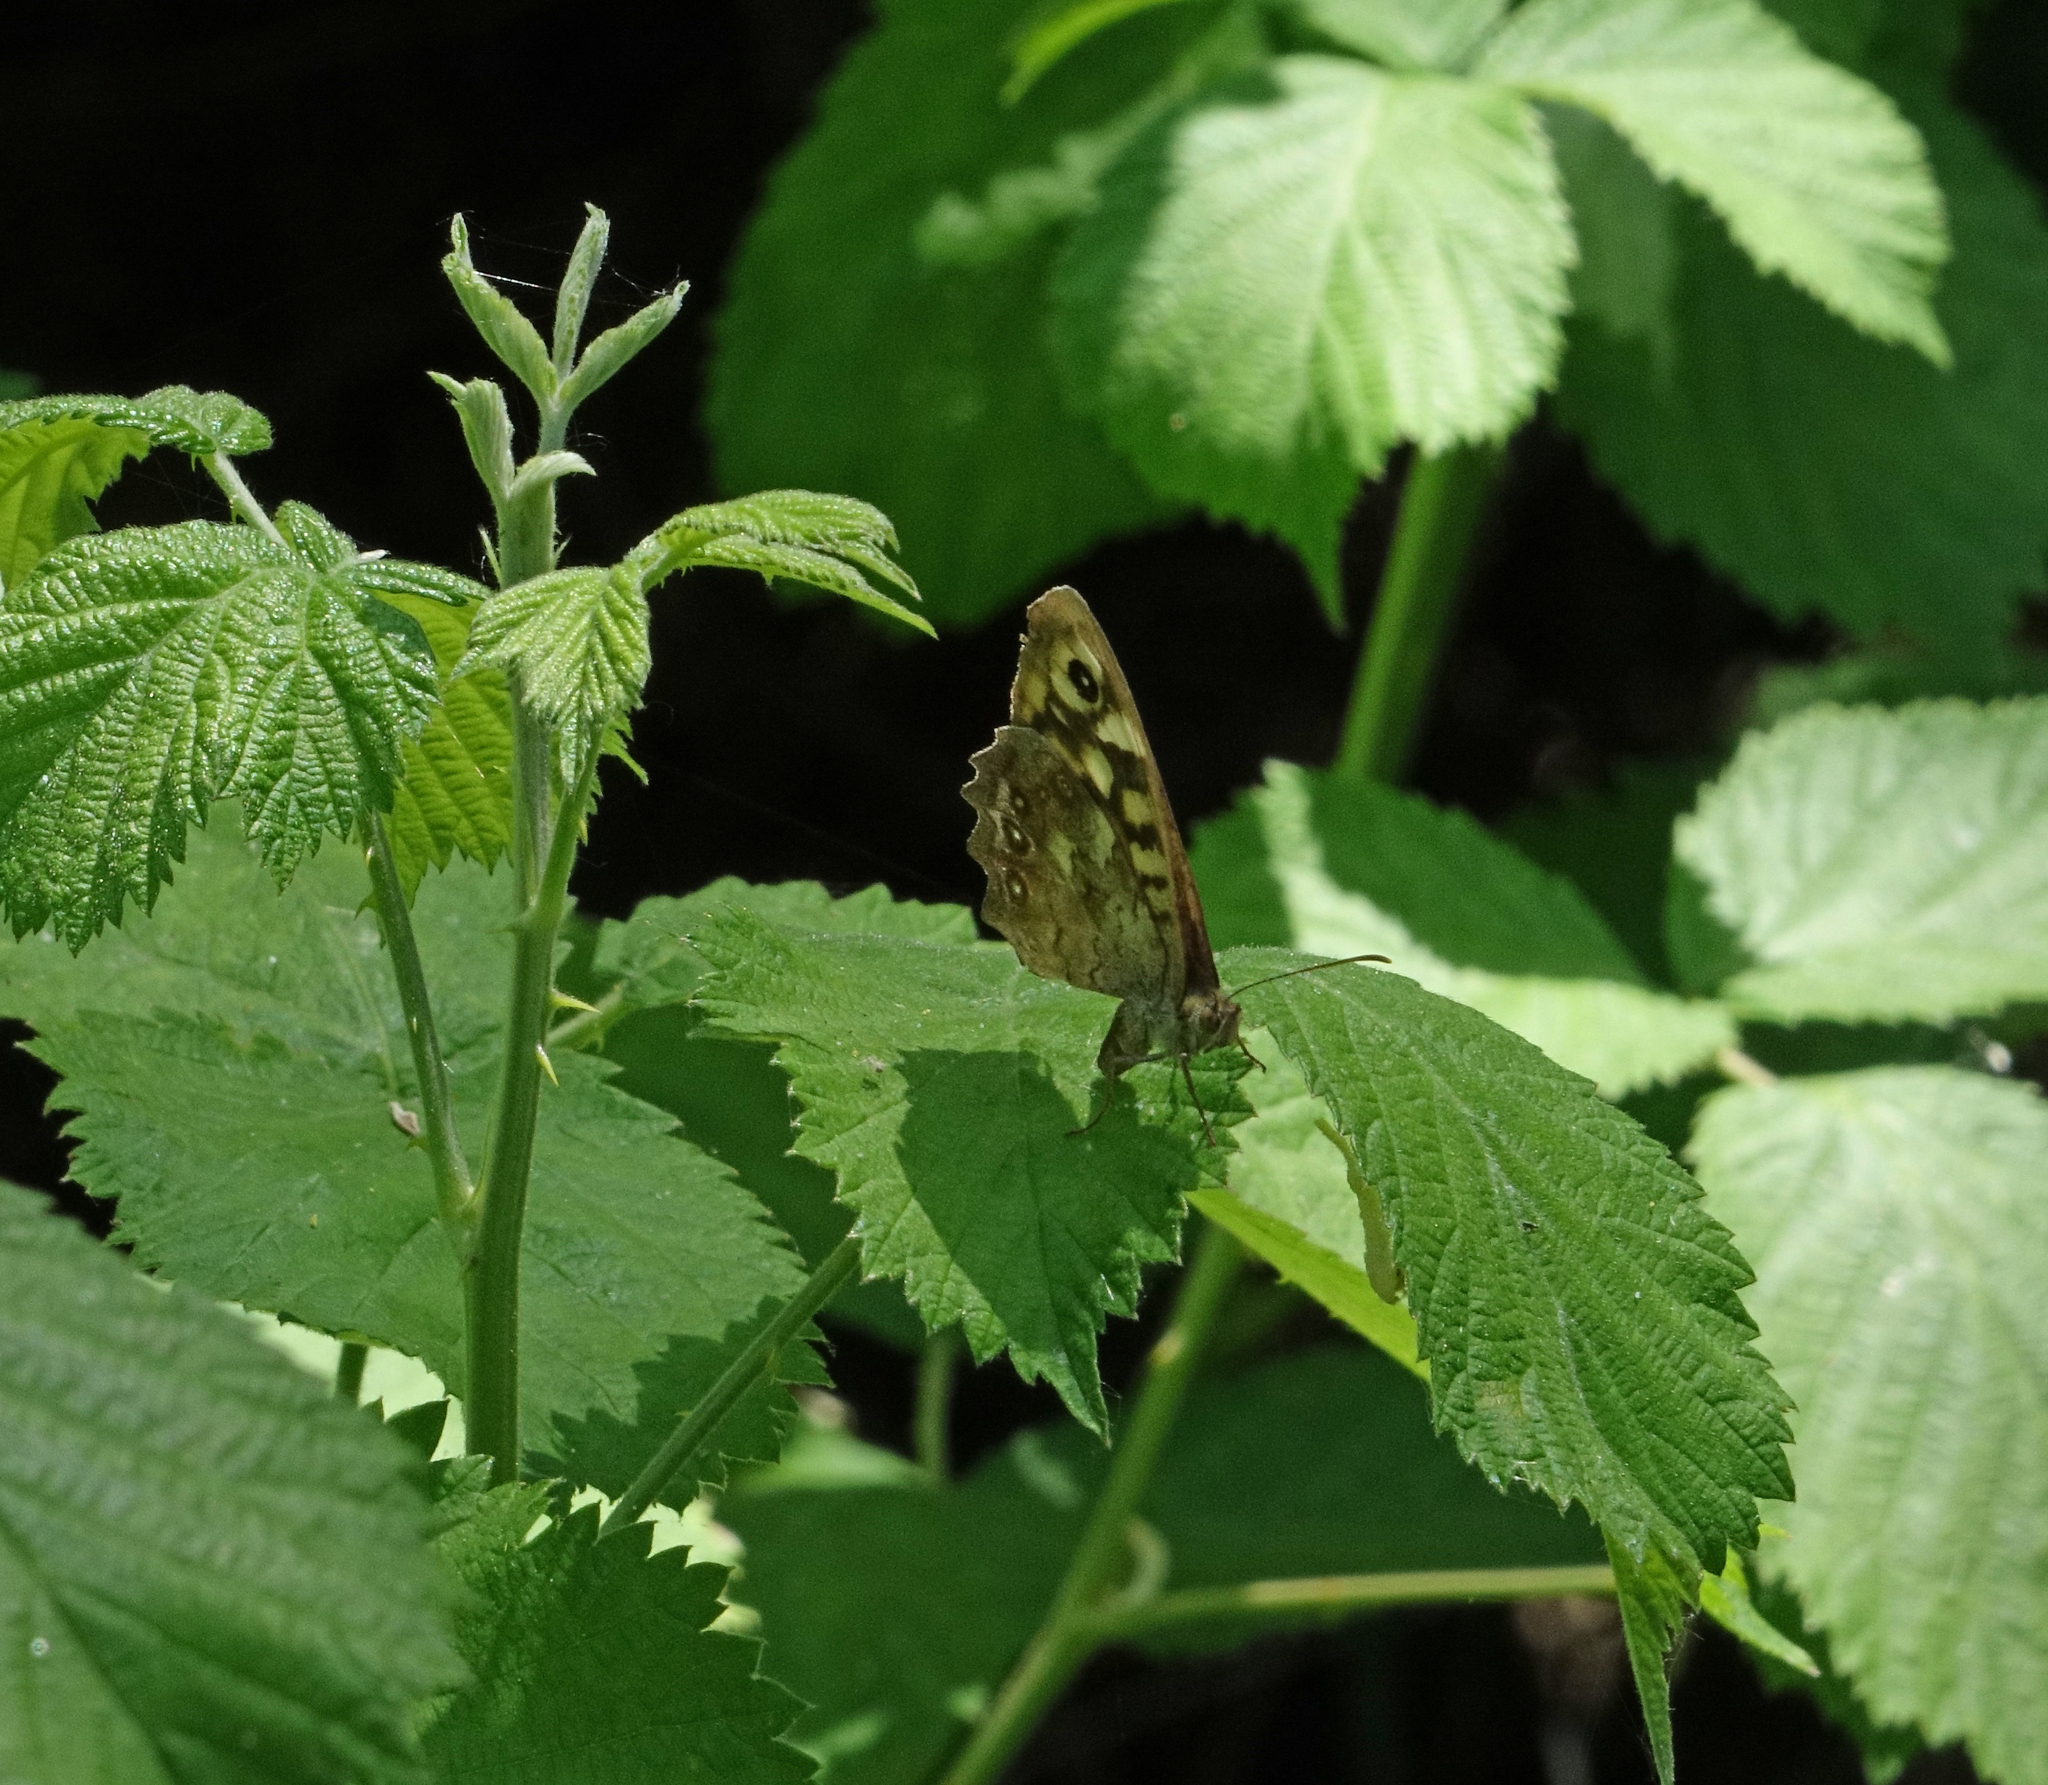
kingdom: Animalia
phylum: Arthropoda
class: Insecta
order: Lepidoptera
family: Nymphalidae
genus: Pararge
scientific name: Pararge aegeria
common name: Speckled wood
